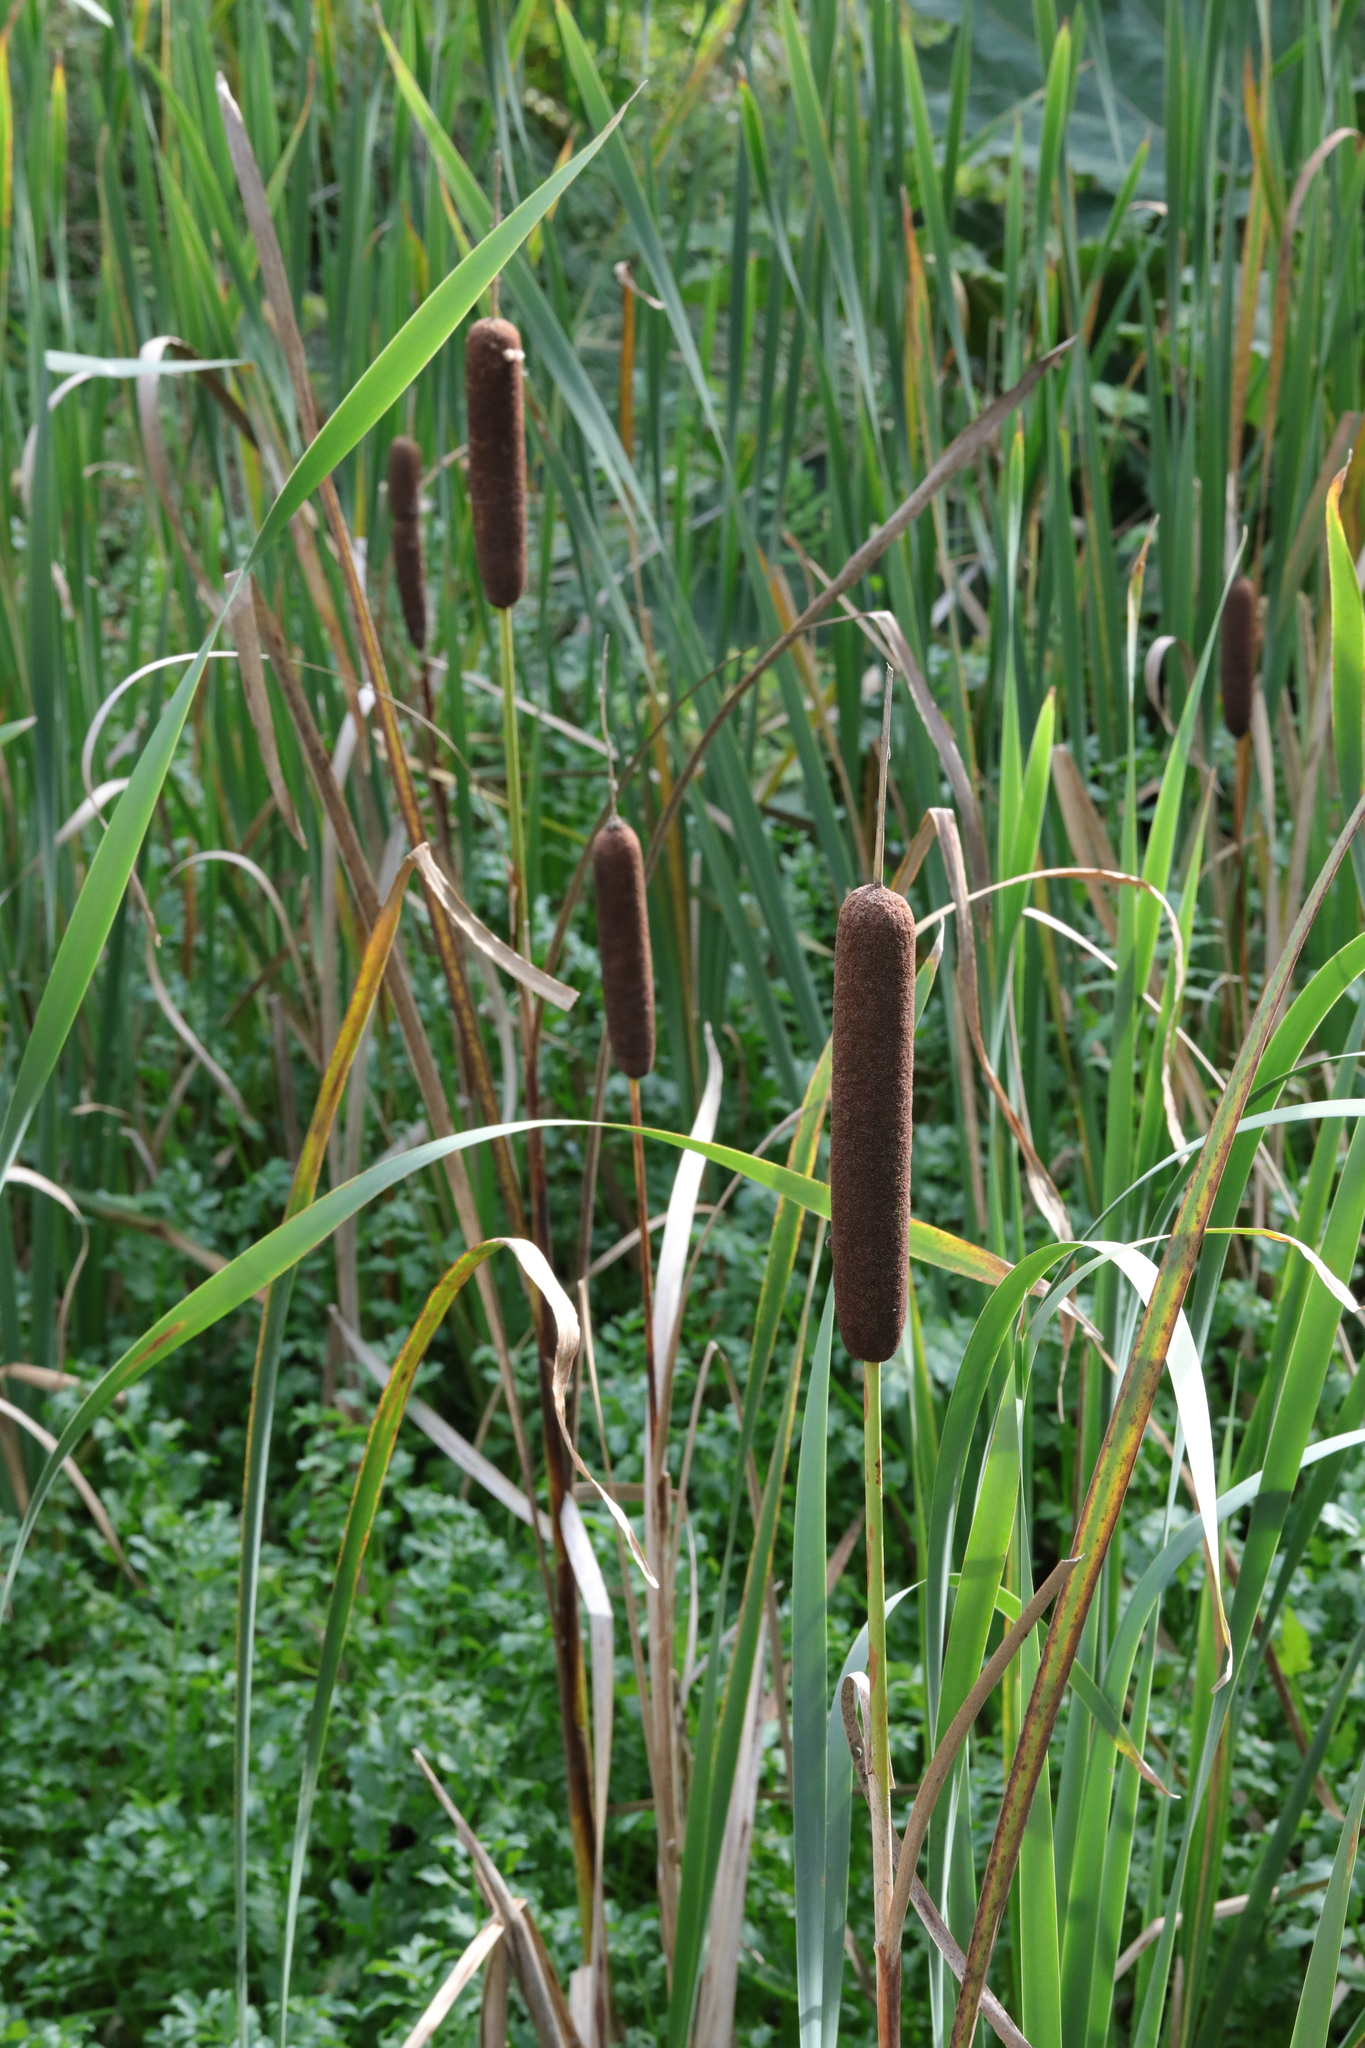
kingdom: Plantae
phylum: Tracheophyta
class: Liliopsida
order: Poales
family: Typhaceae
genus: Typha
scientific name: Typha latifolia
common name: Broadleaf cattail
